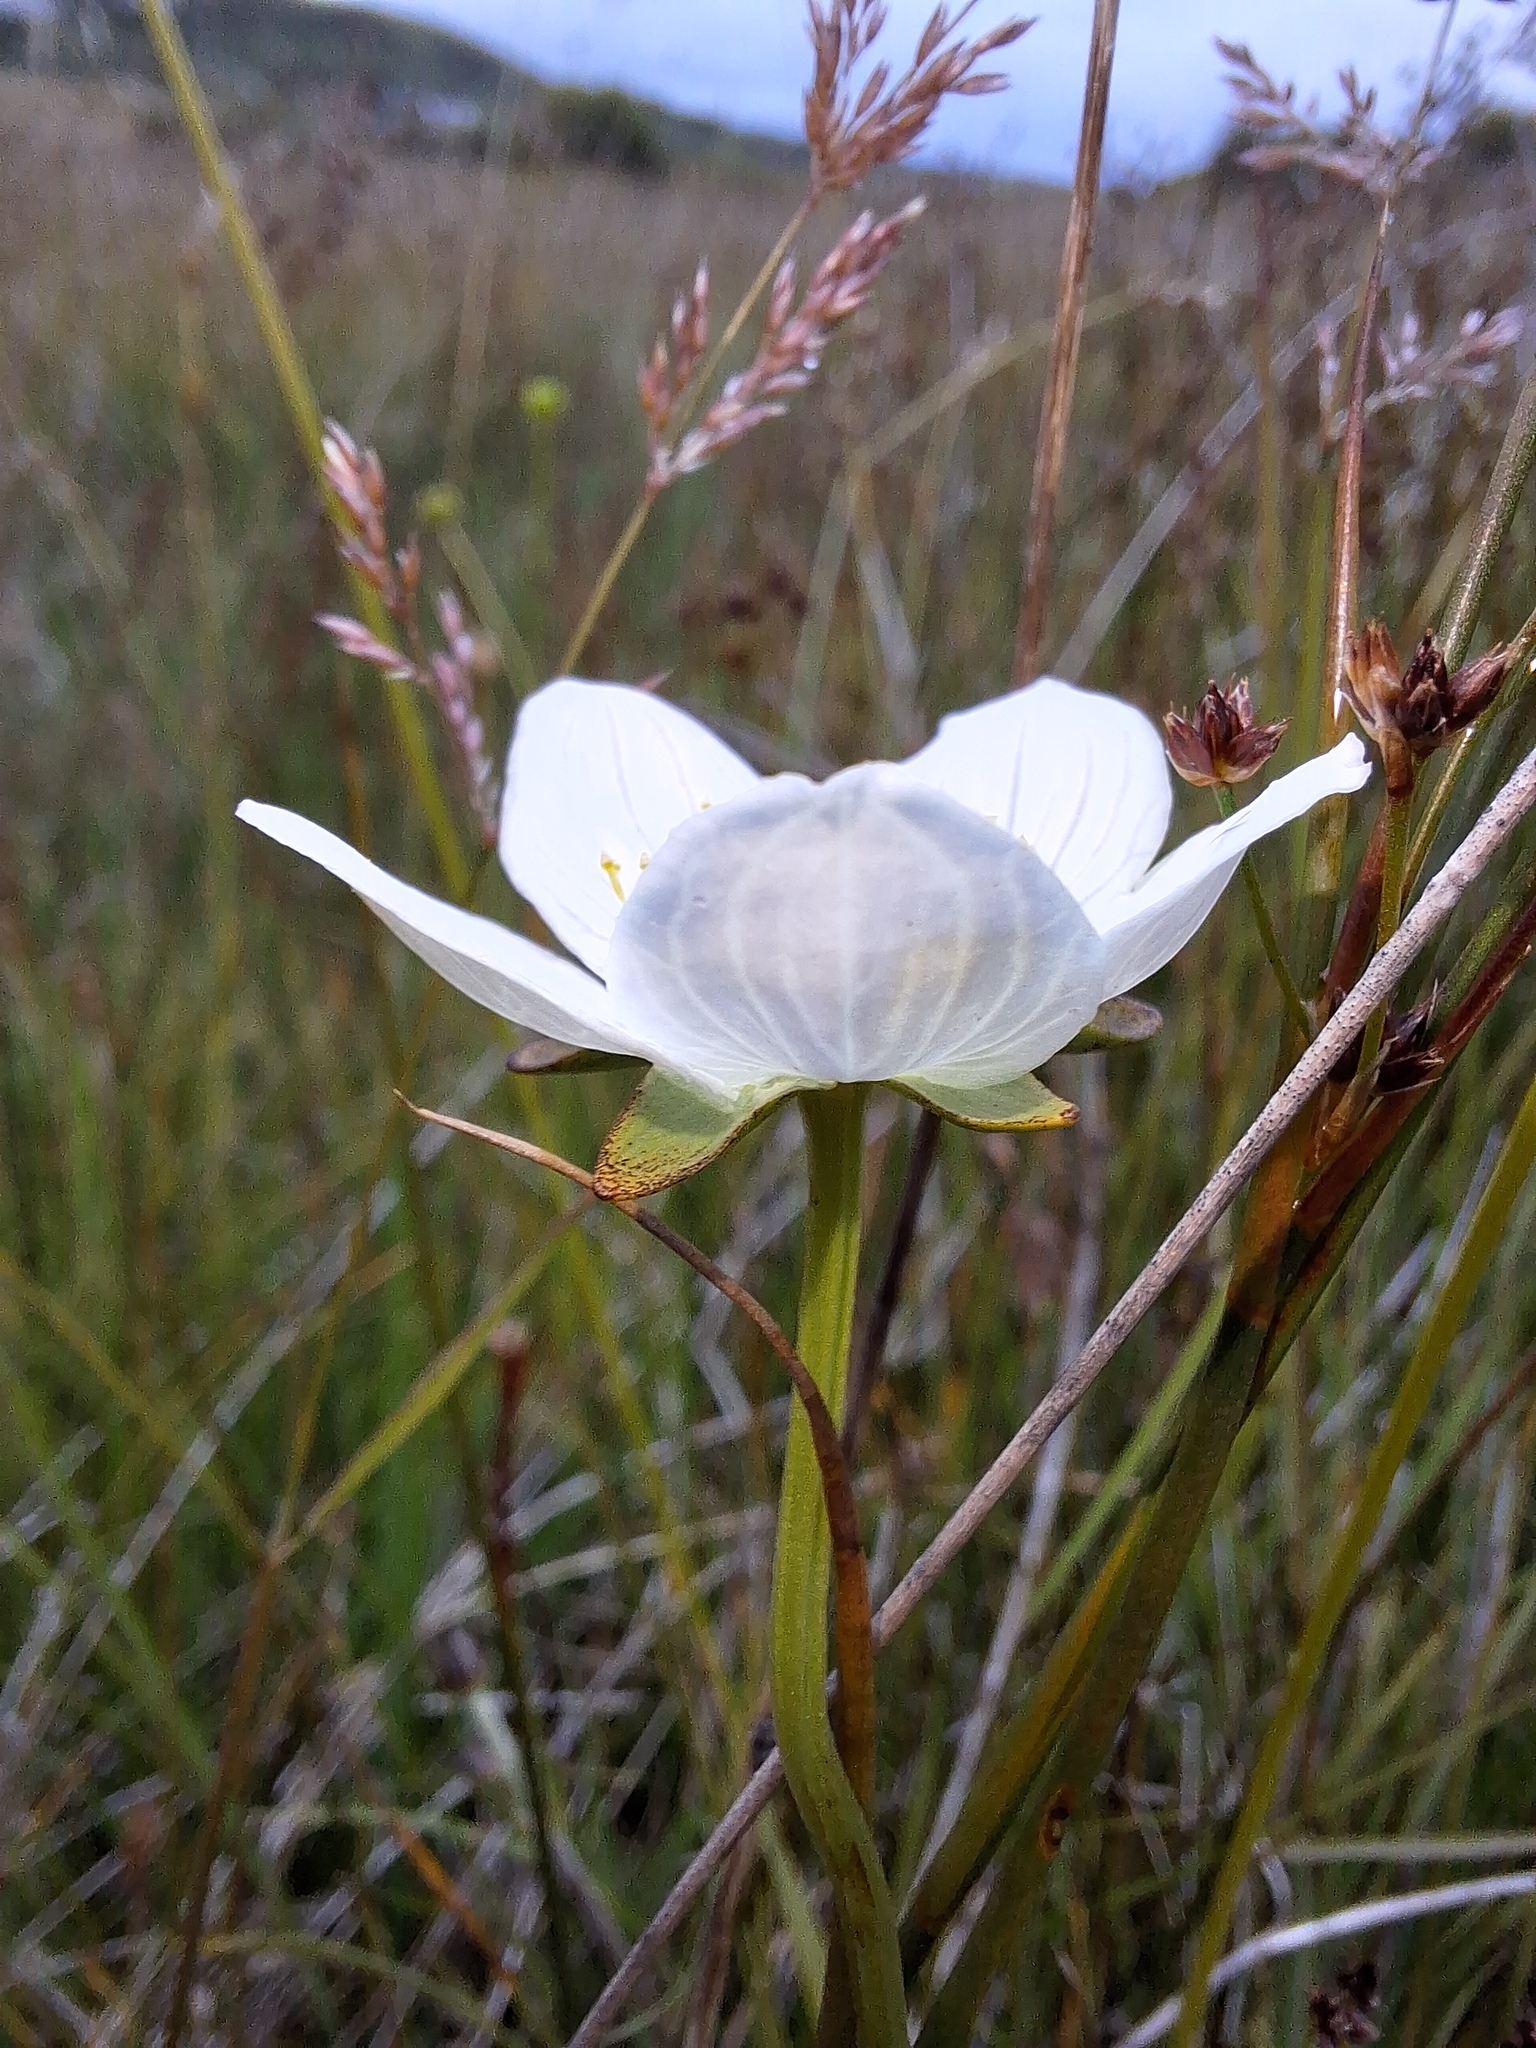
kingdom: Plantae
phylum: Tracheophyta
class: Magnoliopsida
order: Celastrales
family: Parnassiaceae
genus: Parnassia
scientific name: Parnassia palustris
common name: Grass-of-parnassus
